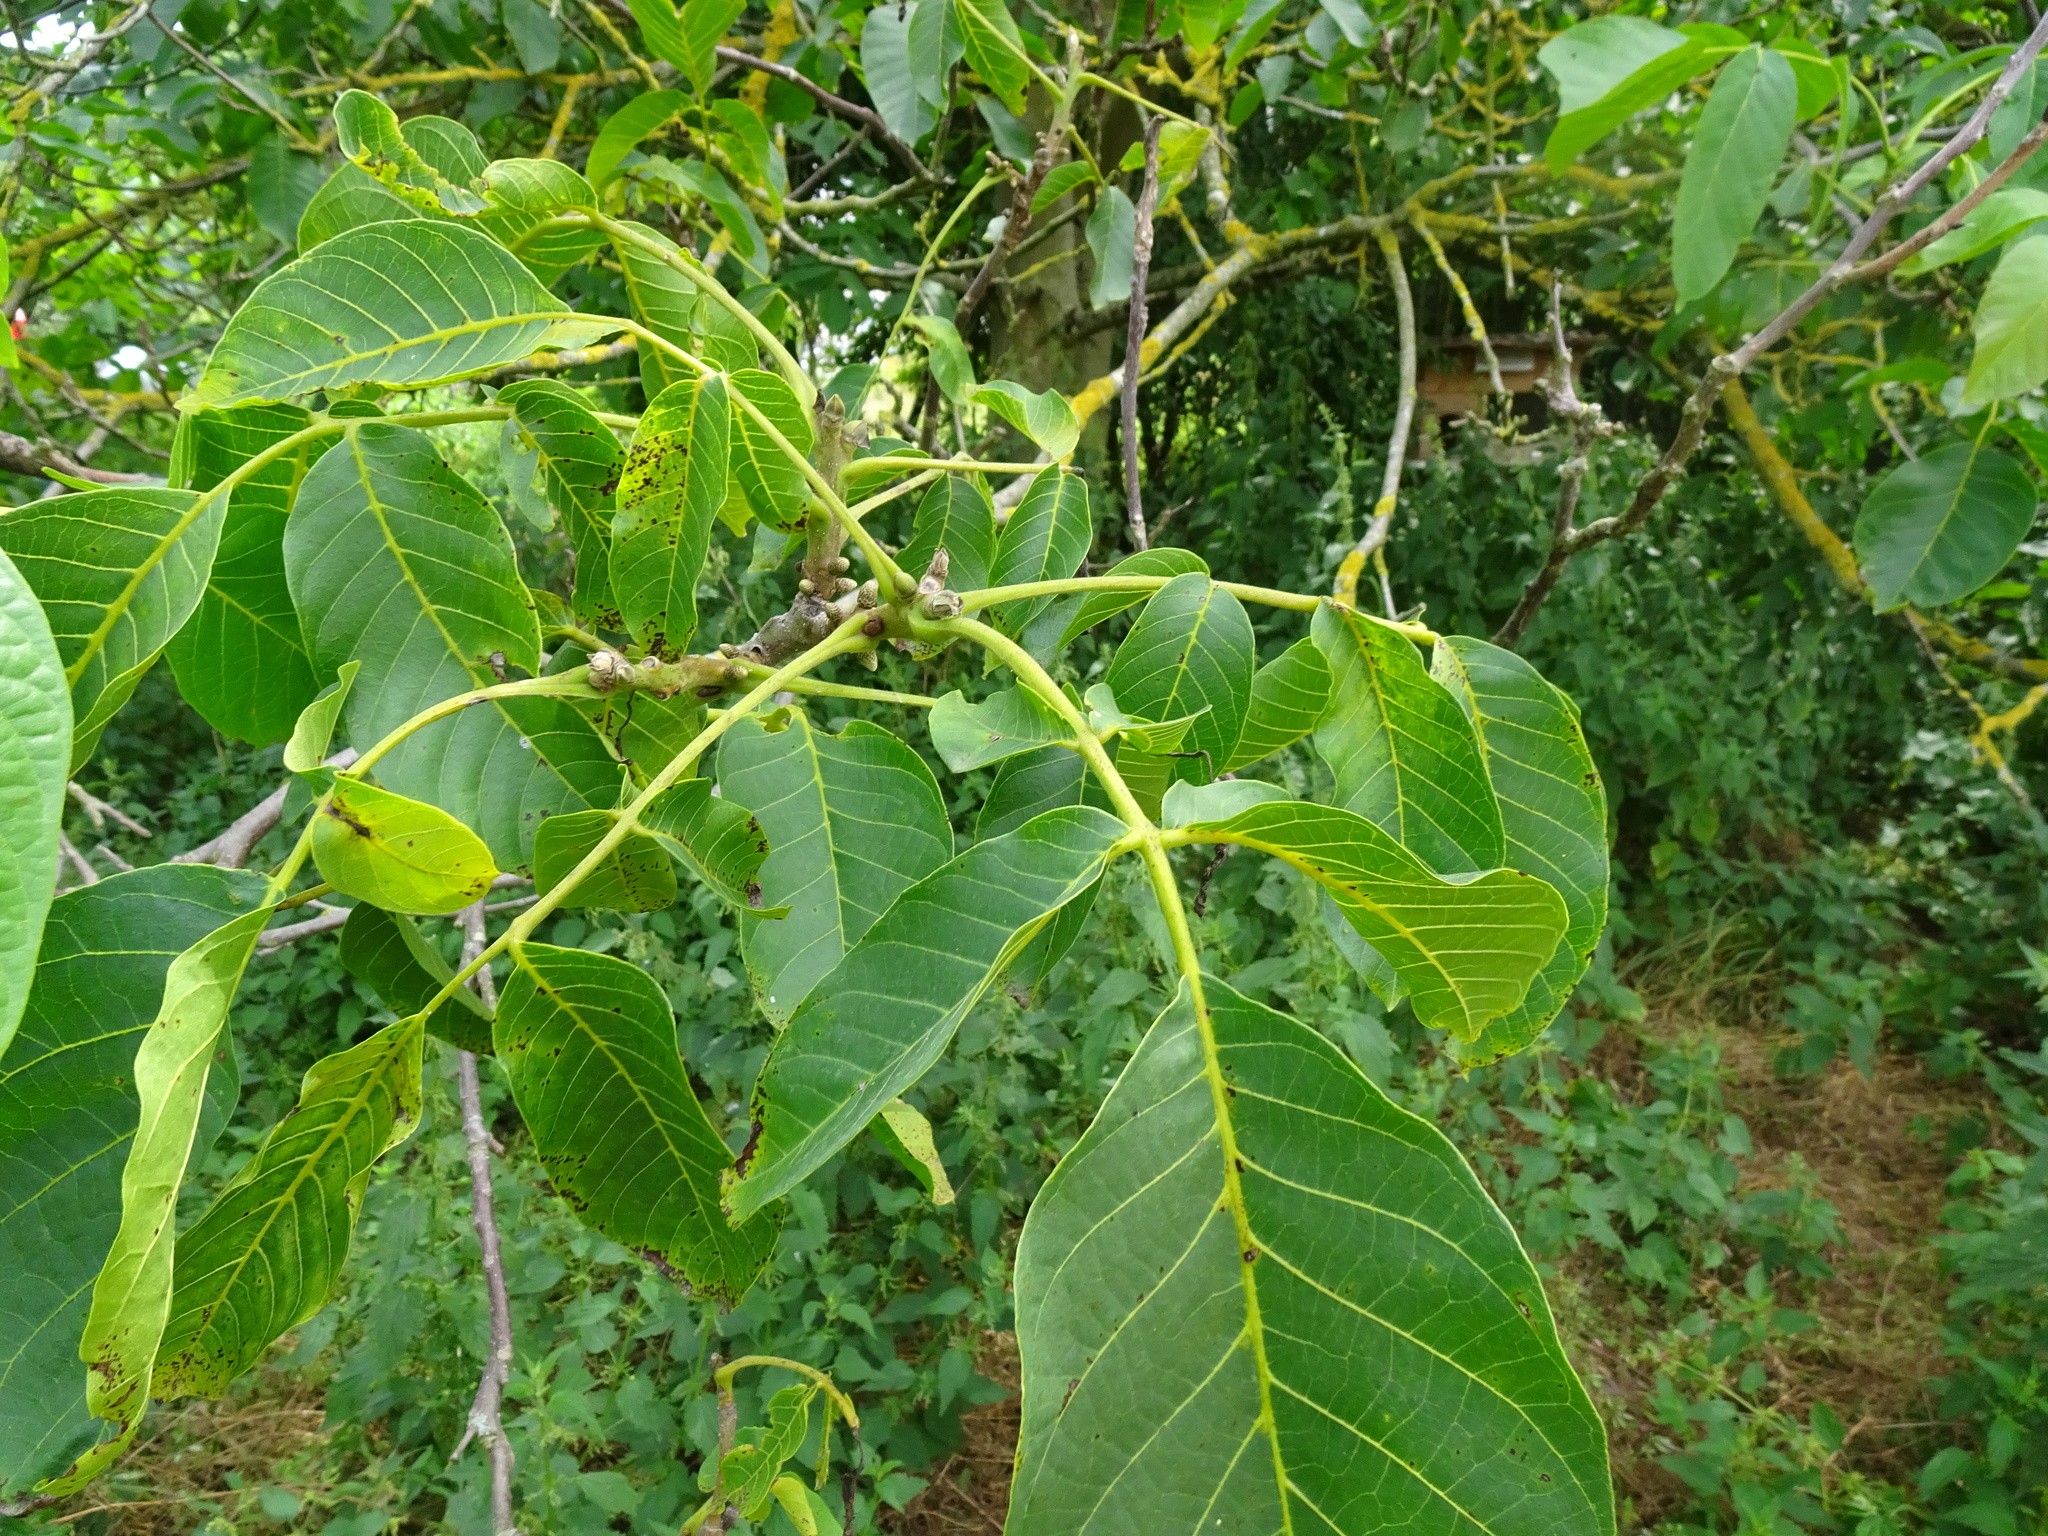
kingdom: Plantae
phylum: Tracheophyta
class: Magnoliopsida
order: Fagales
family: Juglandaceae
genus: Juglans
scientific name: Juglans regia
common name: Walnut
